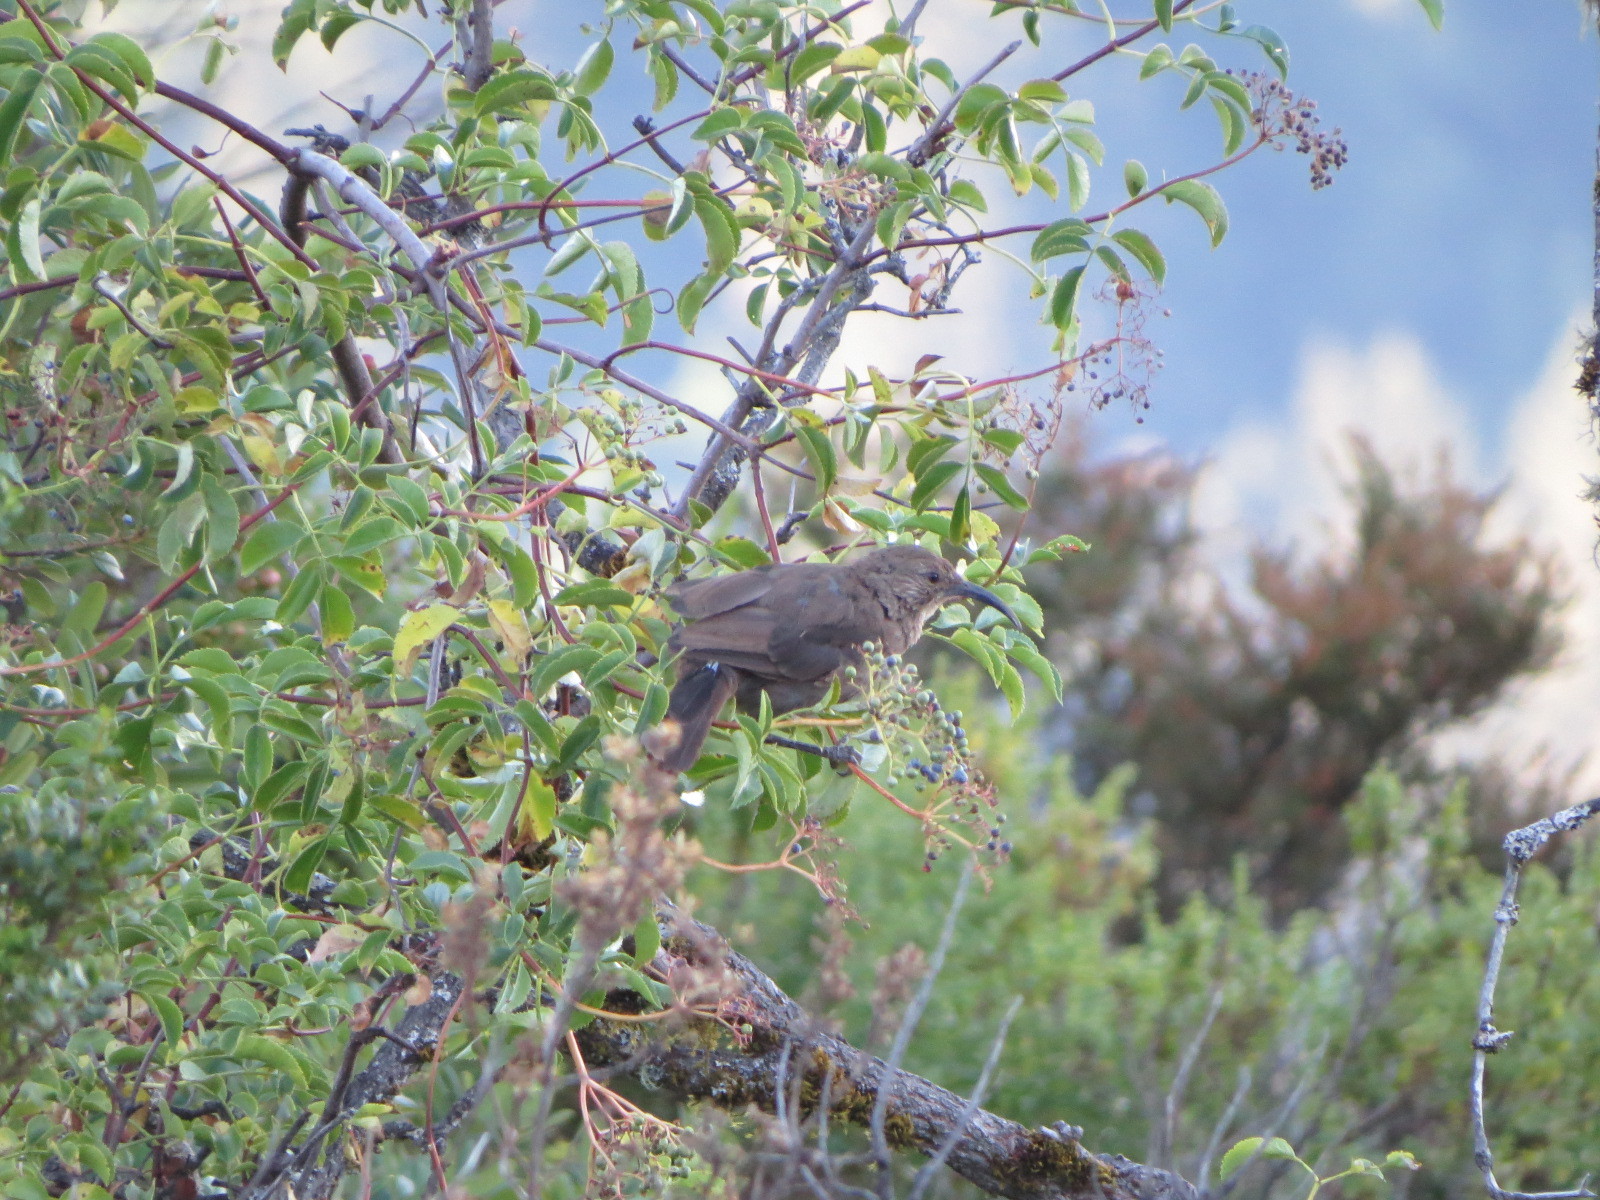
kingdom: Animalia
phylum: Chordata
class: Aves
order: Passeriformes
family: Mimidae
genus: Toxostoma
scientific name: Toxostoma redivivum
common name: California thrasher
